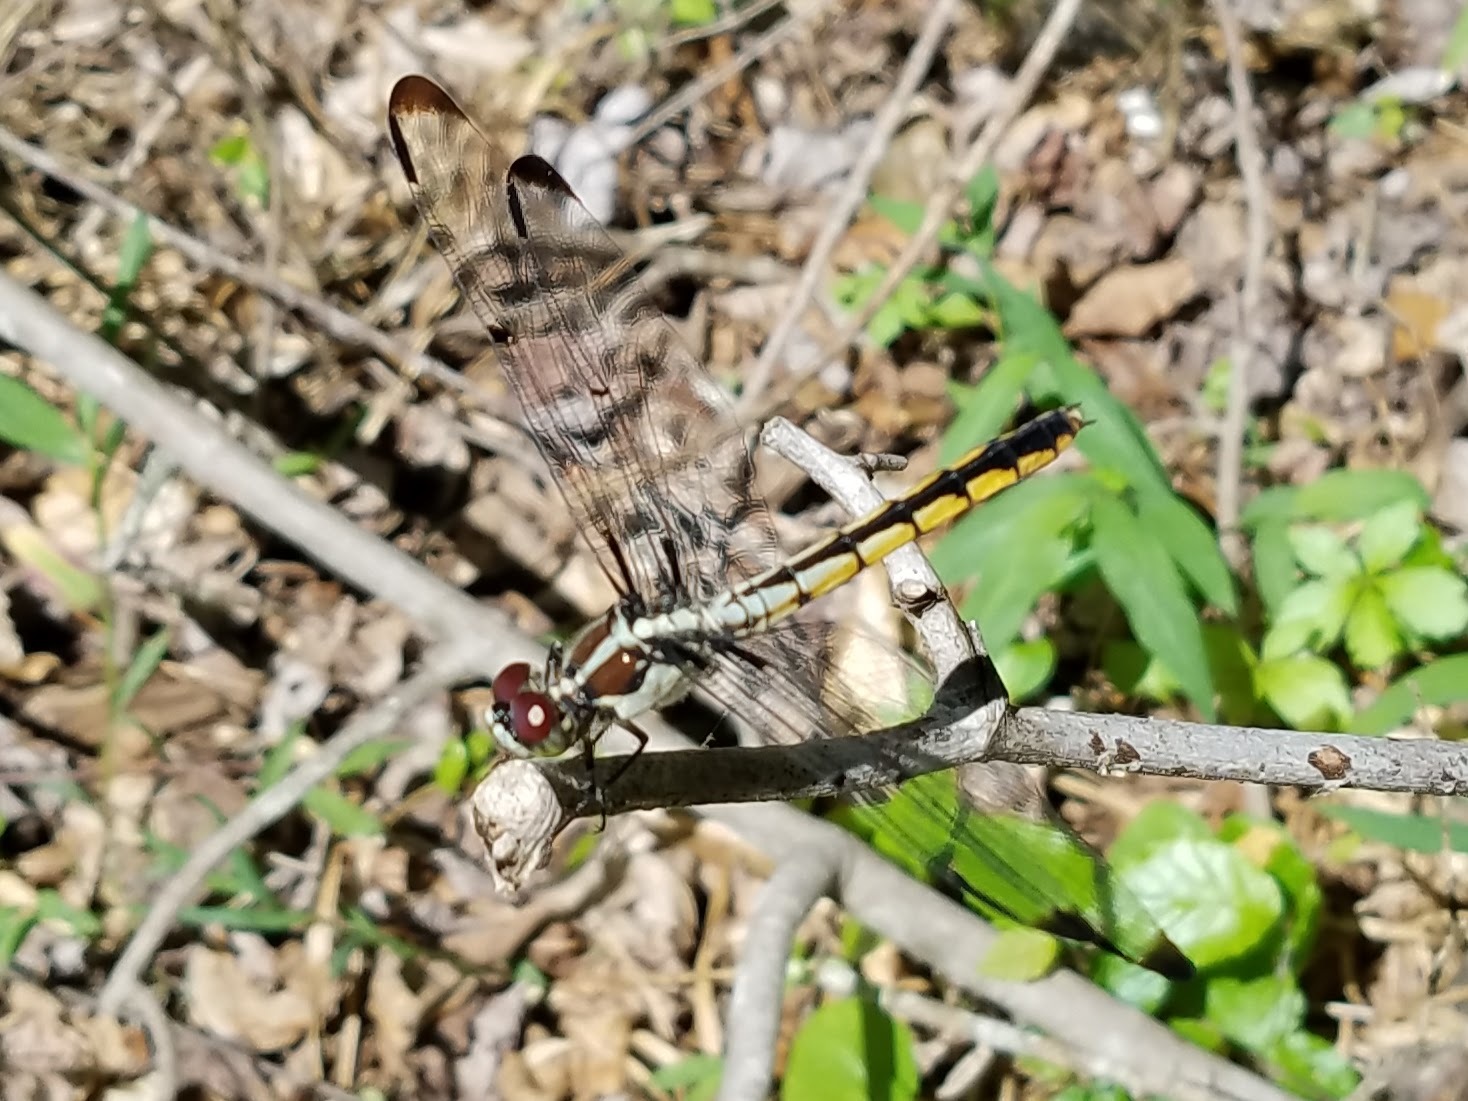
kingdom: Animalia
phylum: Arthropoda
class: Insecta
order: Odonata
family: Libellulidae
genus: Libellula
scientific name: Libellula vibrans
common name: Great blue skimmer
